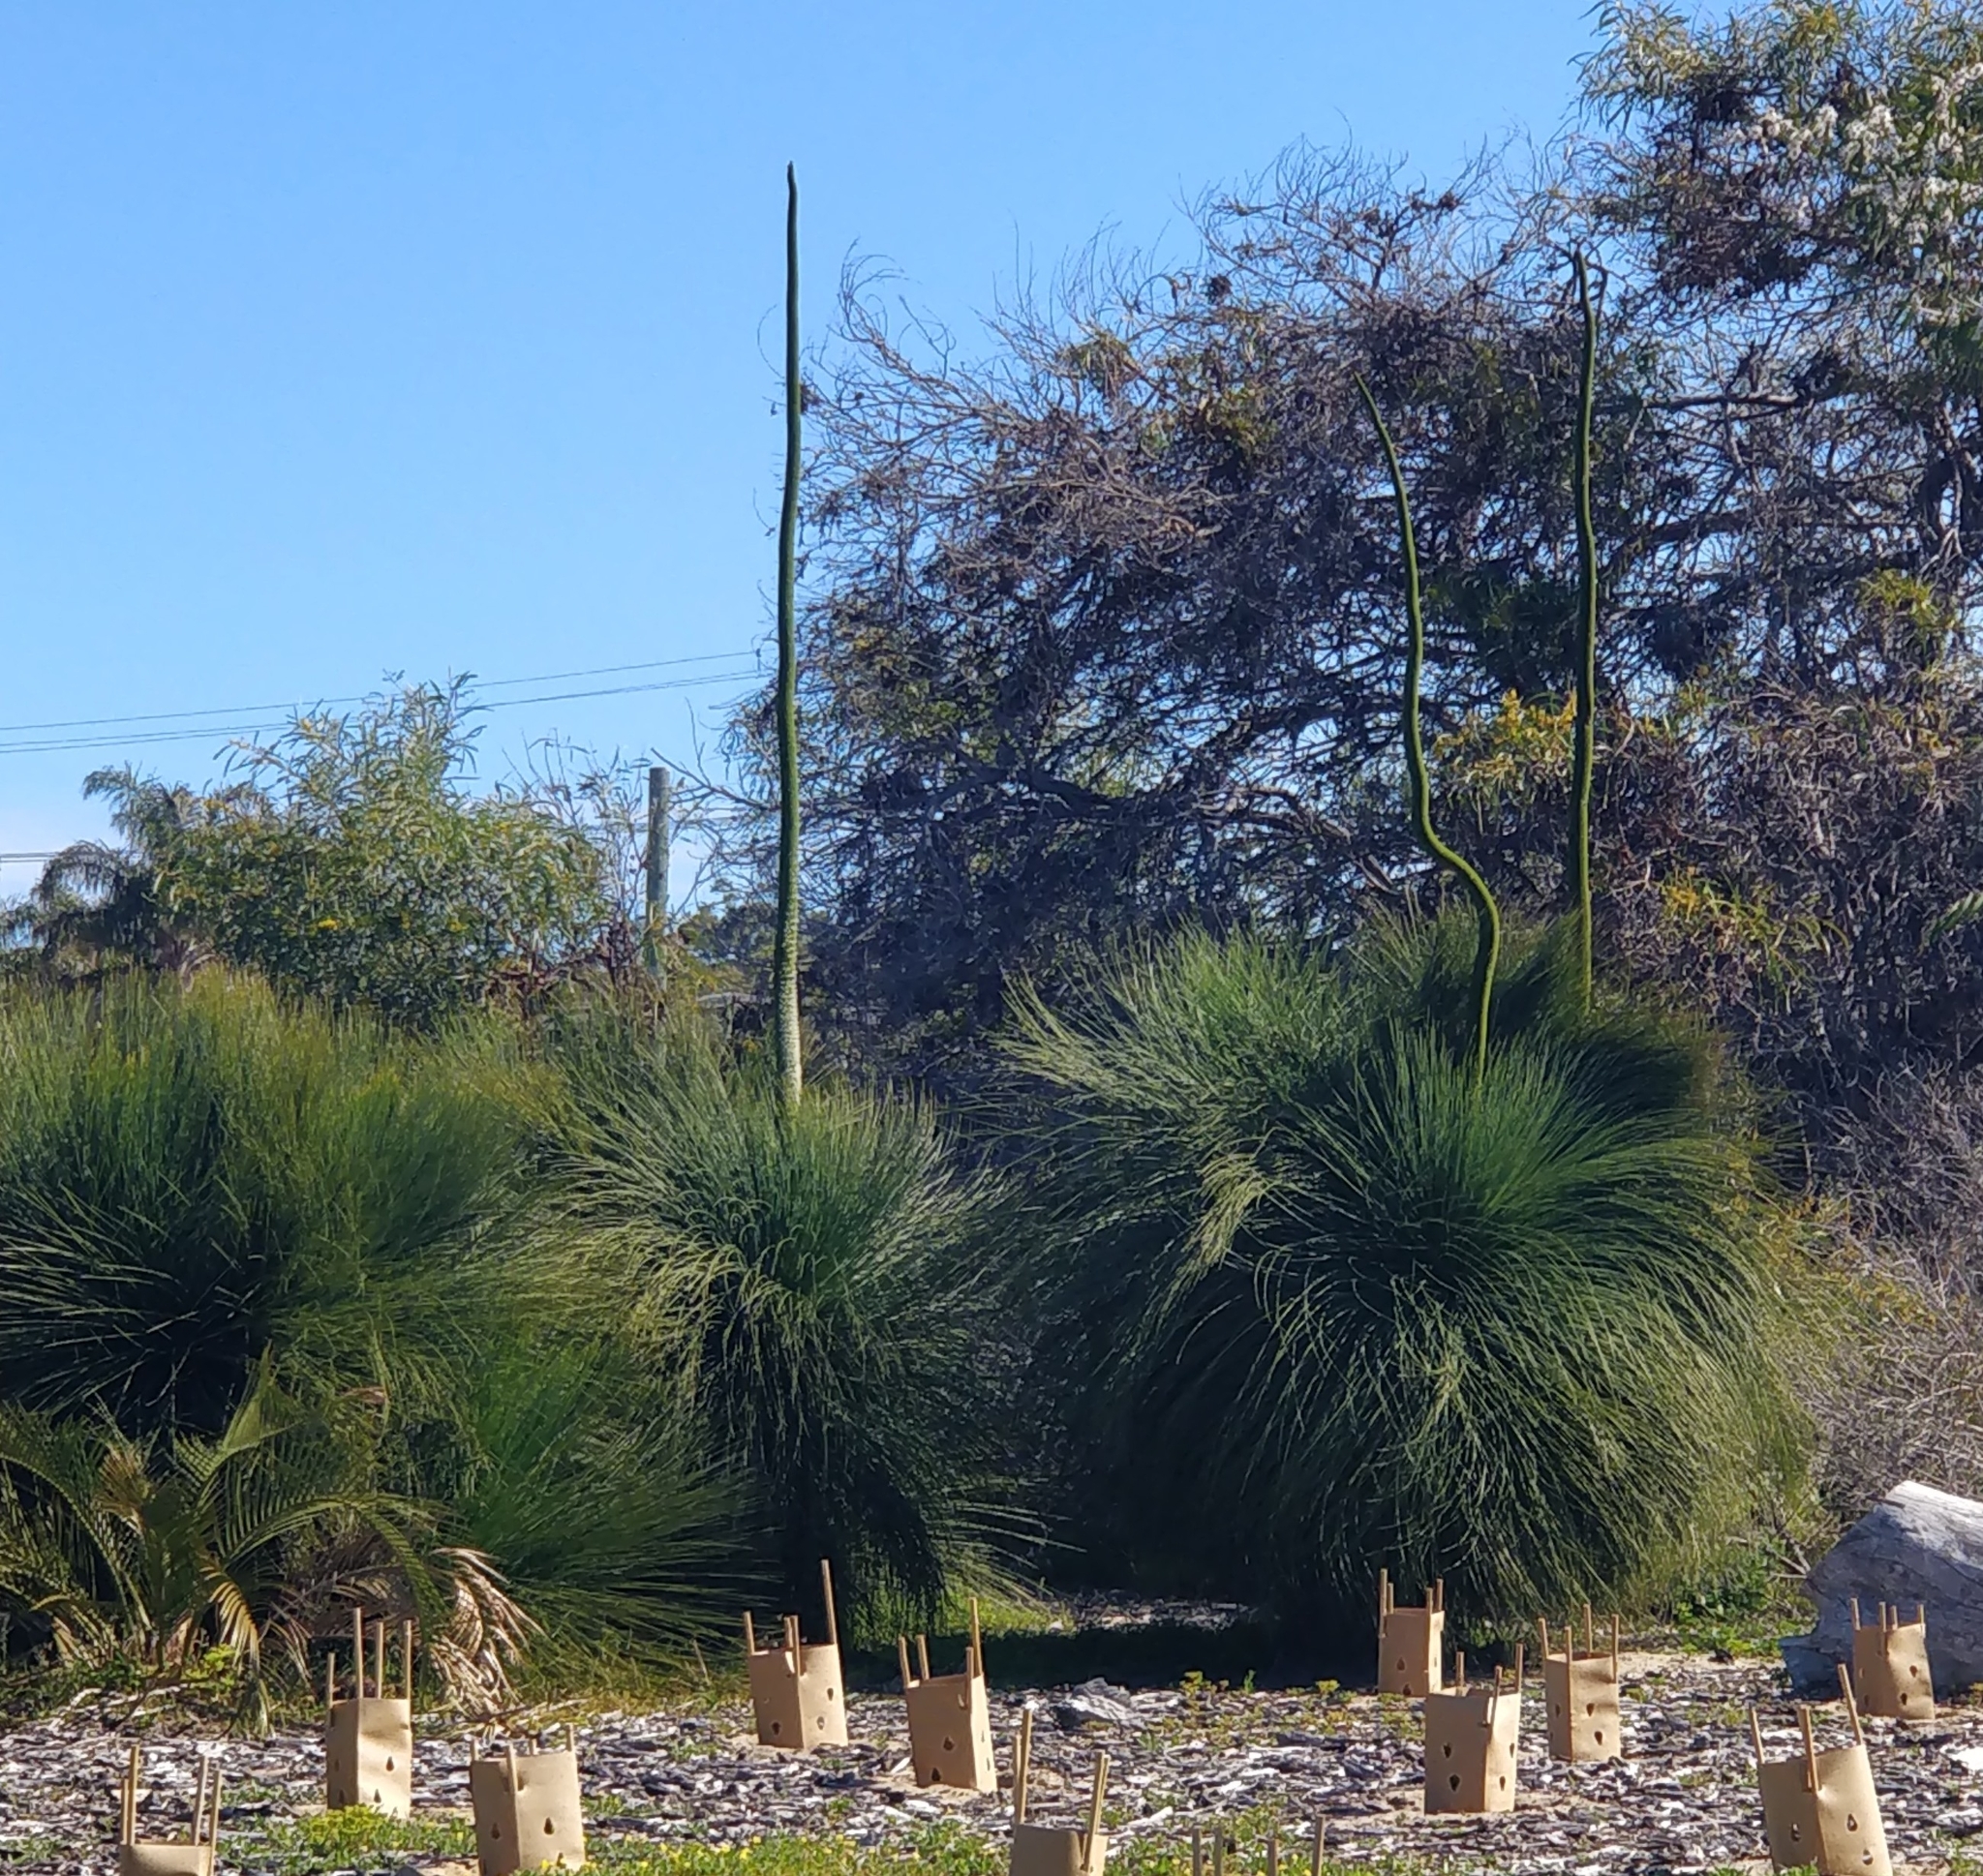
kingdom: Plantae
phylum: Tracheophyta
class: Liliopsida
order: Asparagales
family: Asphodelaceae
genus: Xanthorrhoea
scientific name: Xanthorrhoea preissii
